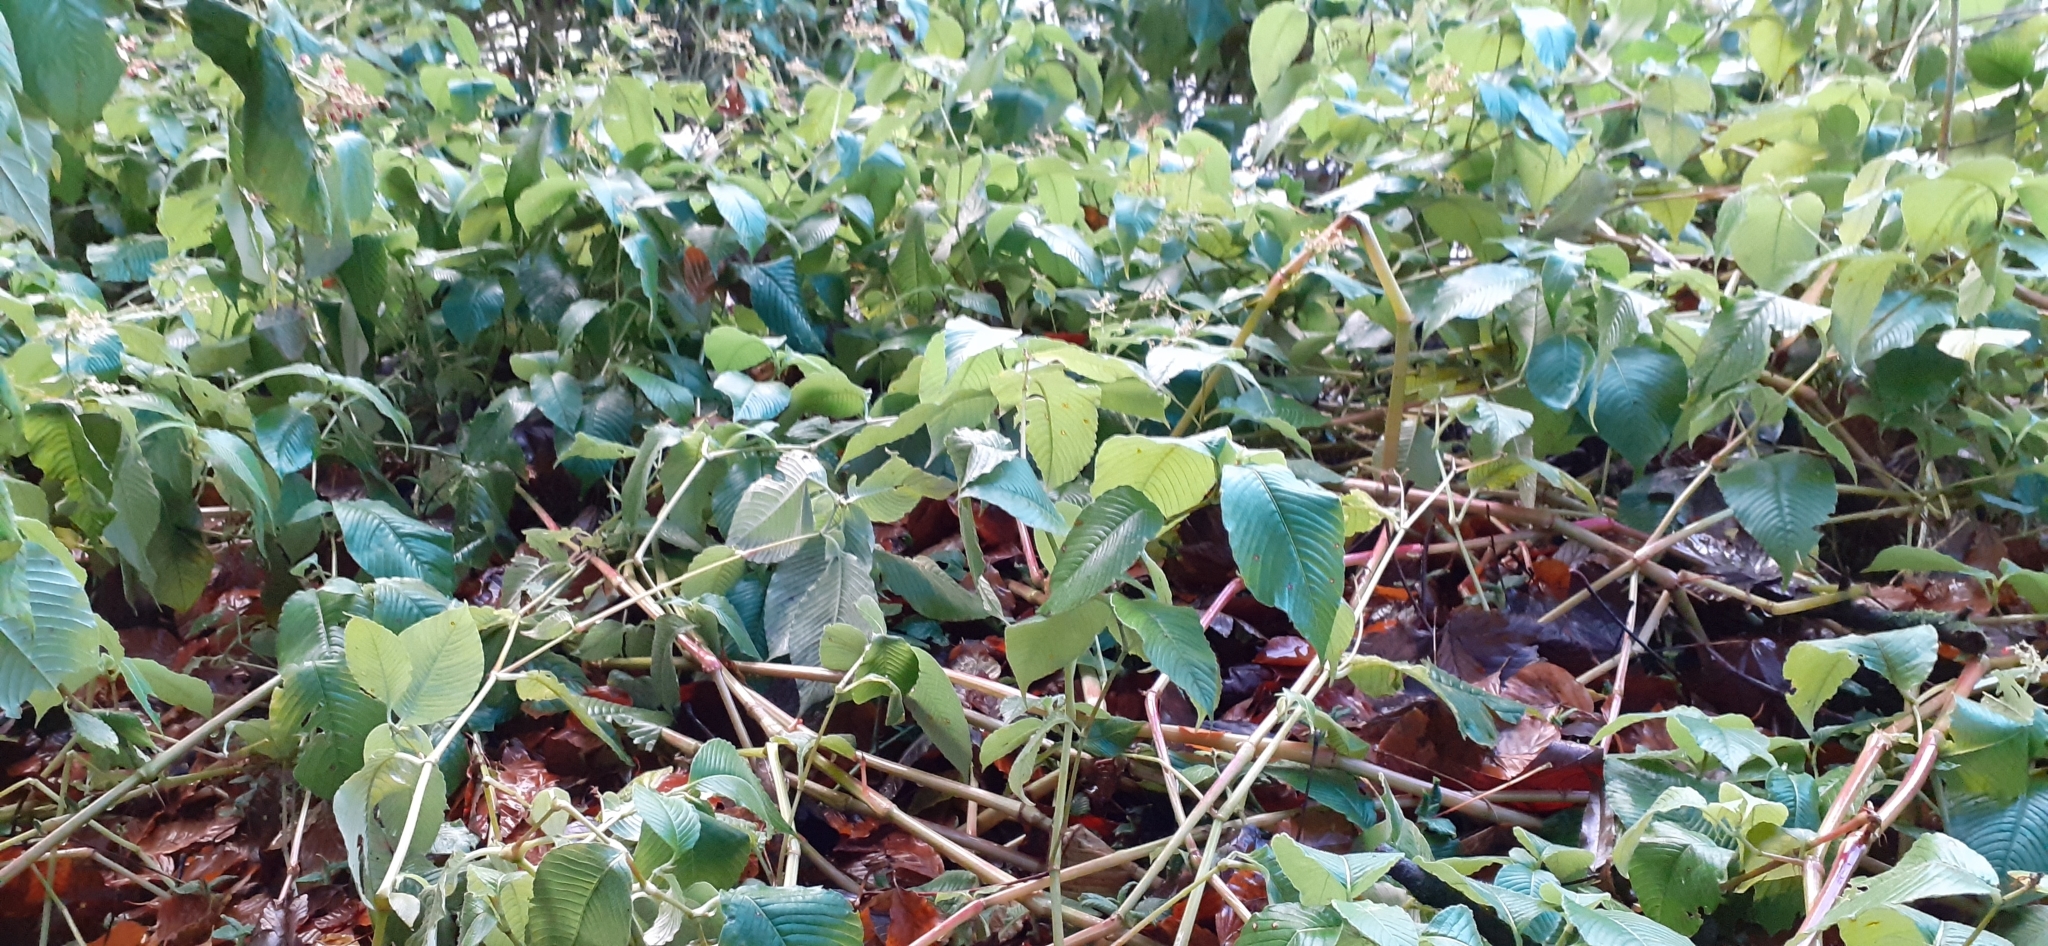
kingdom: Plantae
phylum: Tracheophyta
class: Magnoliopsida
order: Caryophyllales
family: Polygonaceae
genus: Koenigia
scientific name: Koenigia campanulata
